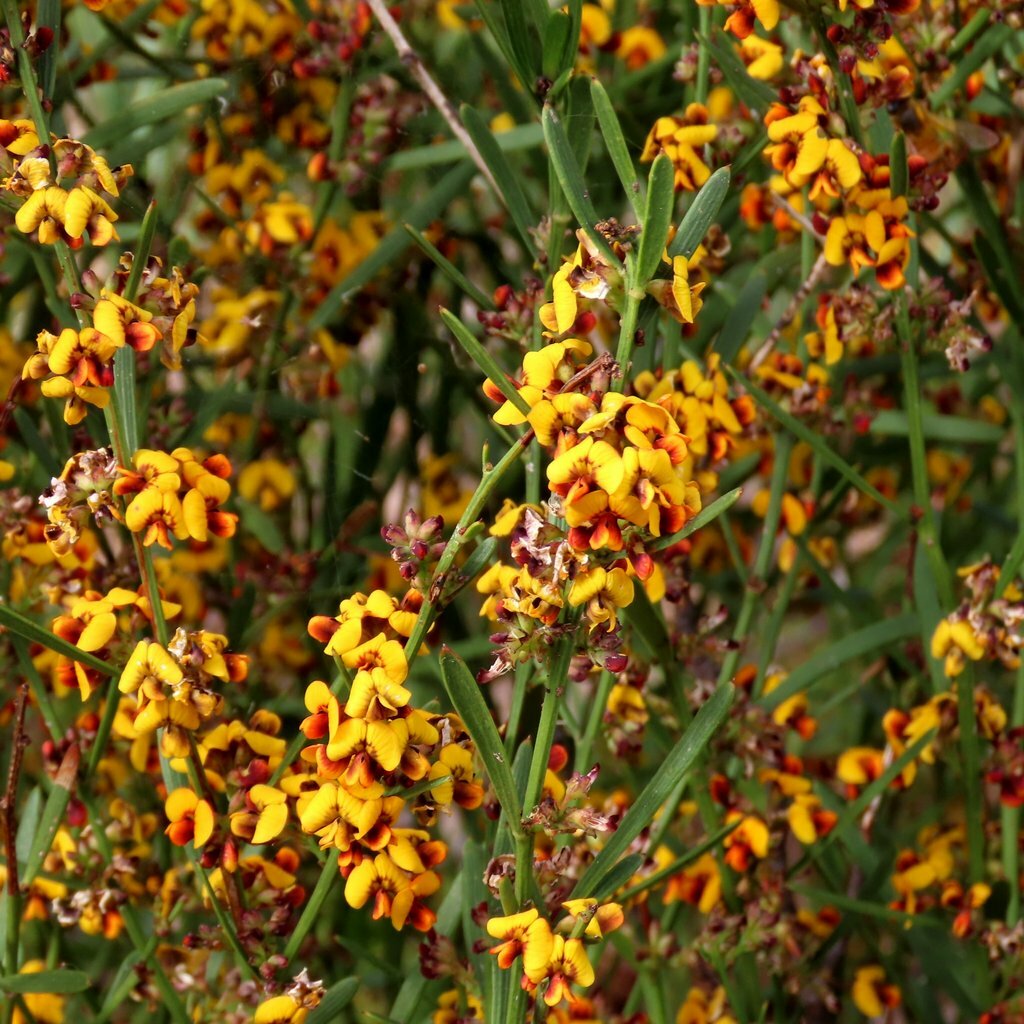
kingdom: Plantae
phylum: Tracheophyta
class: Magnoliopsida
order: Fabales
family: Fabaceae
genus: Daviesia
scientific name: Daviesia leptophylla
